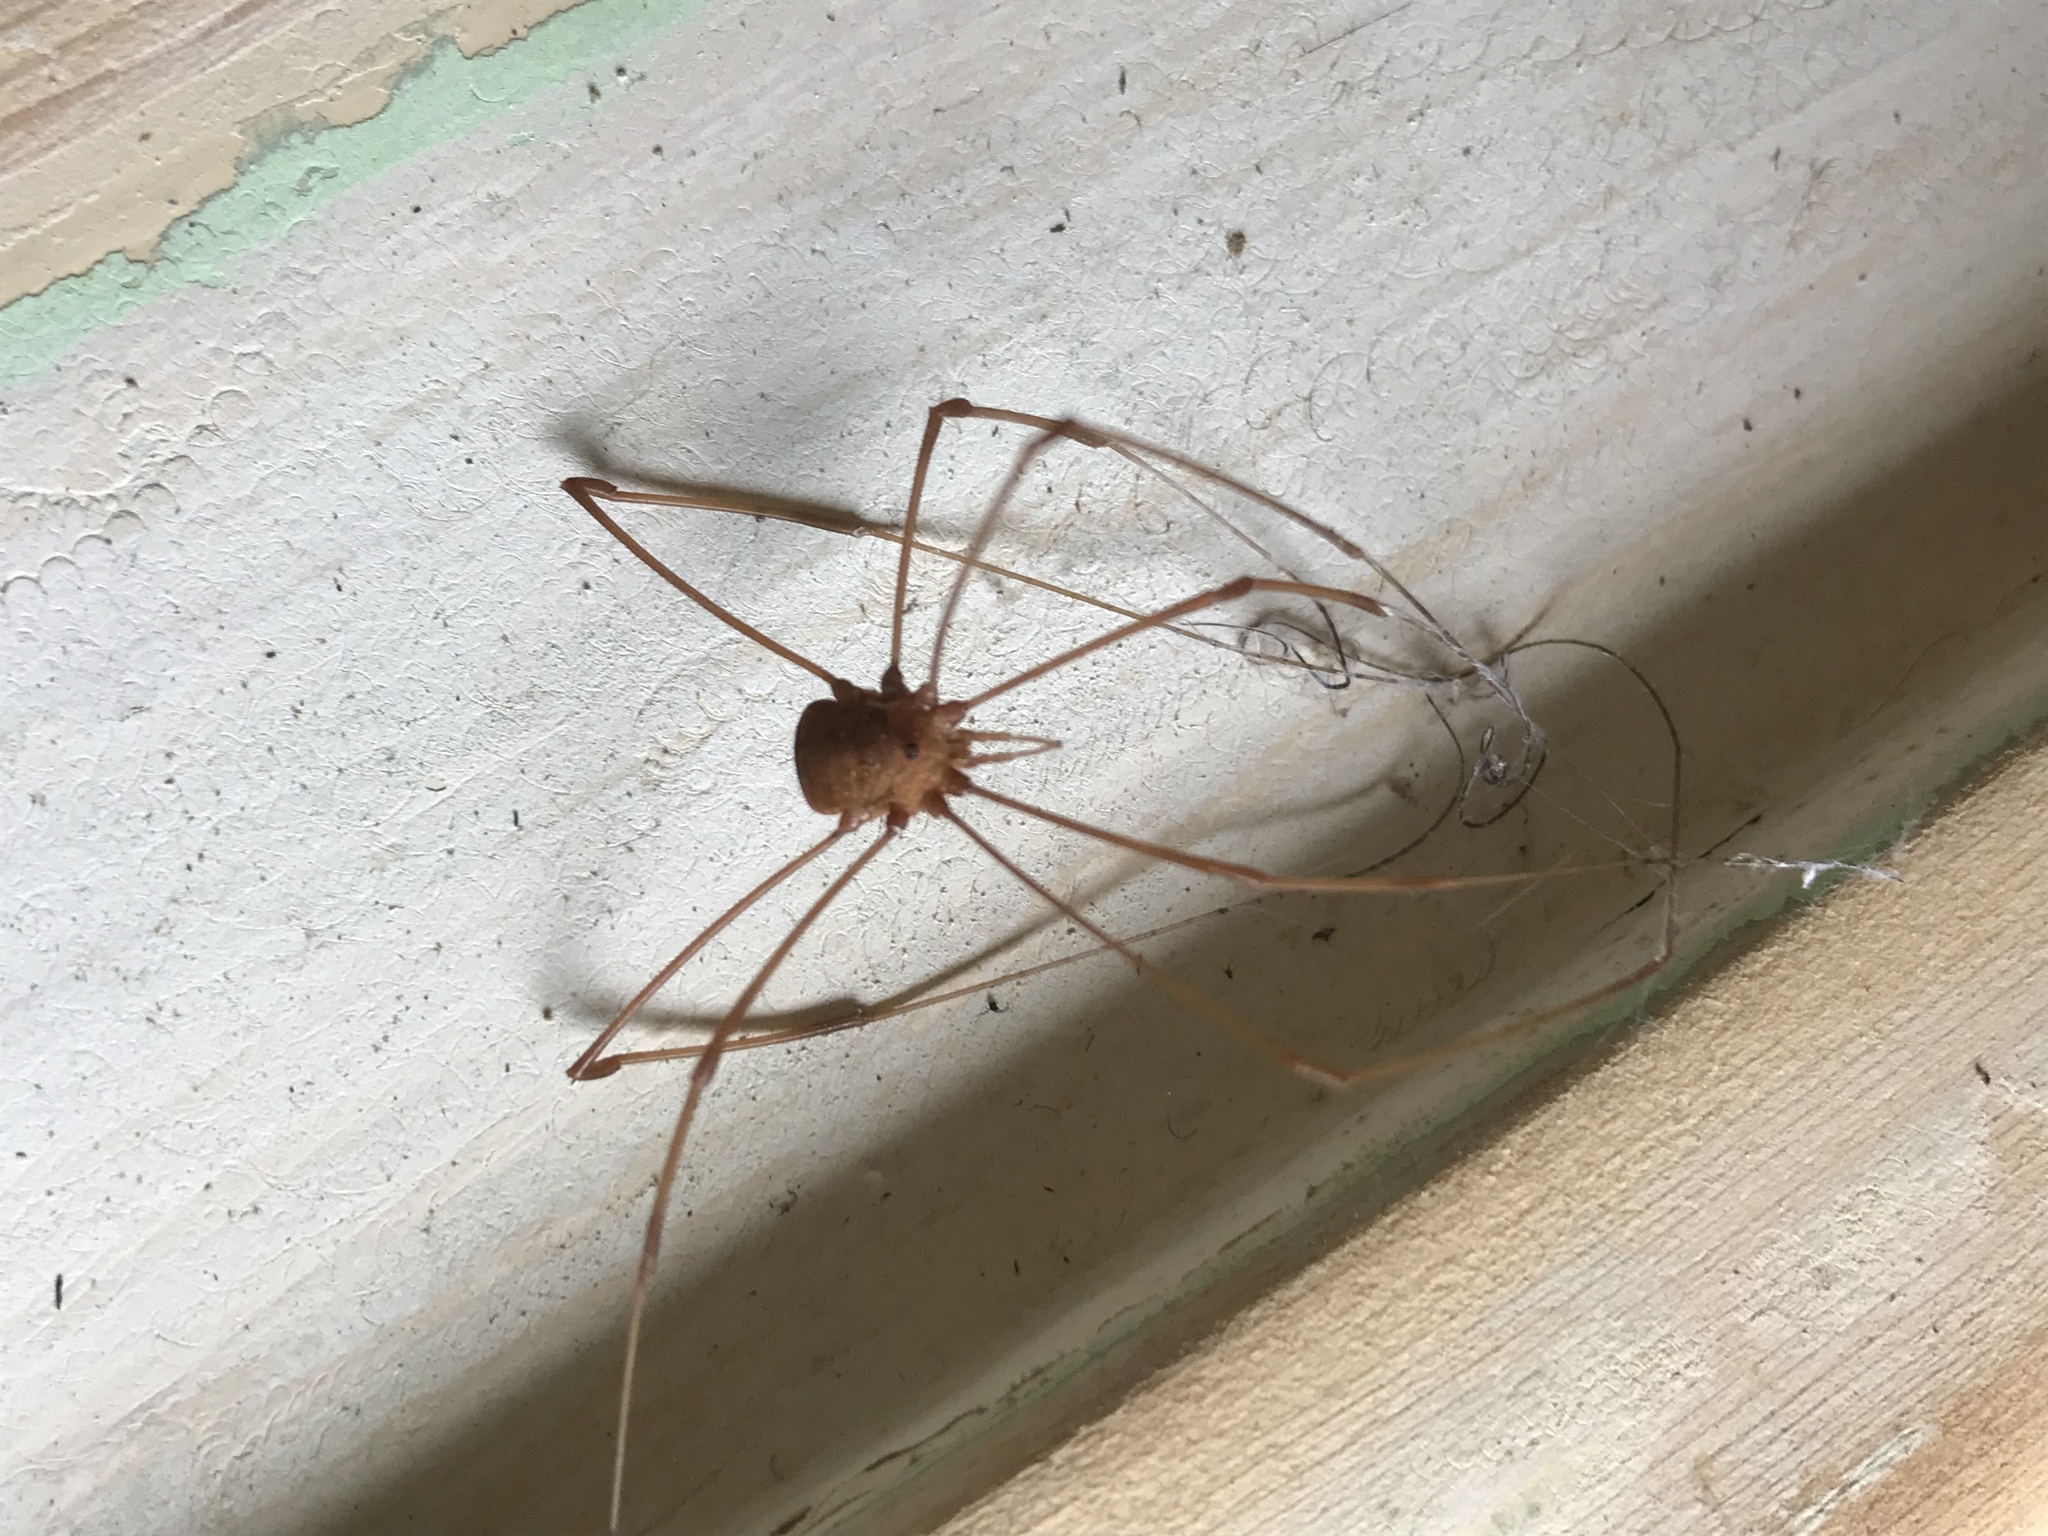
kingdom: Animalia
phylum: Arthropoda
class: Arachnida
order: Opiliones
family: Sclerosomatidae
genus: Leiobunum
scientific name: Leiobunum flavum
